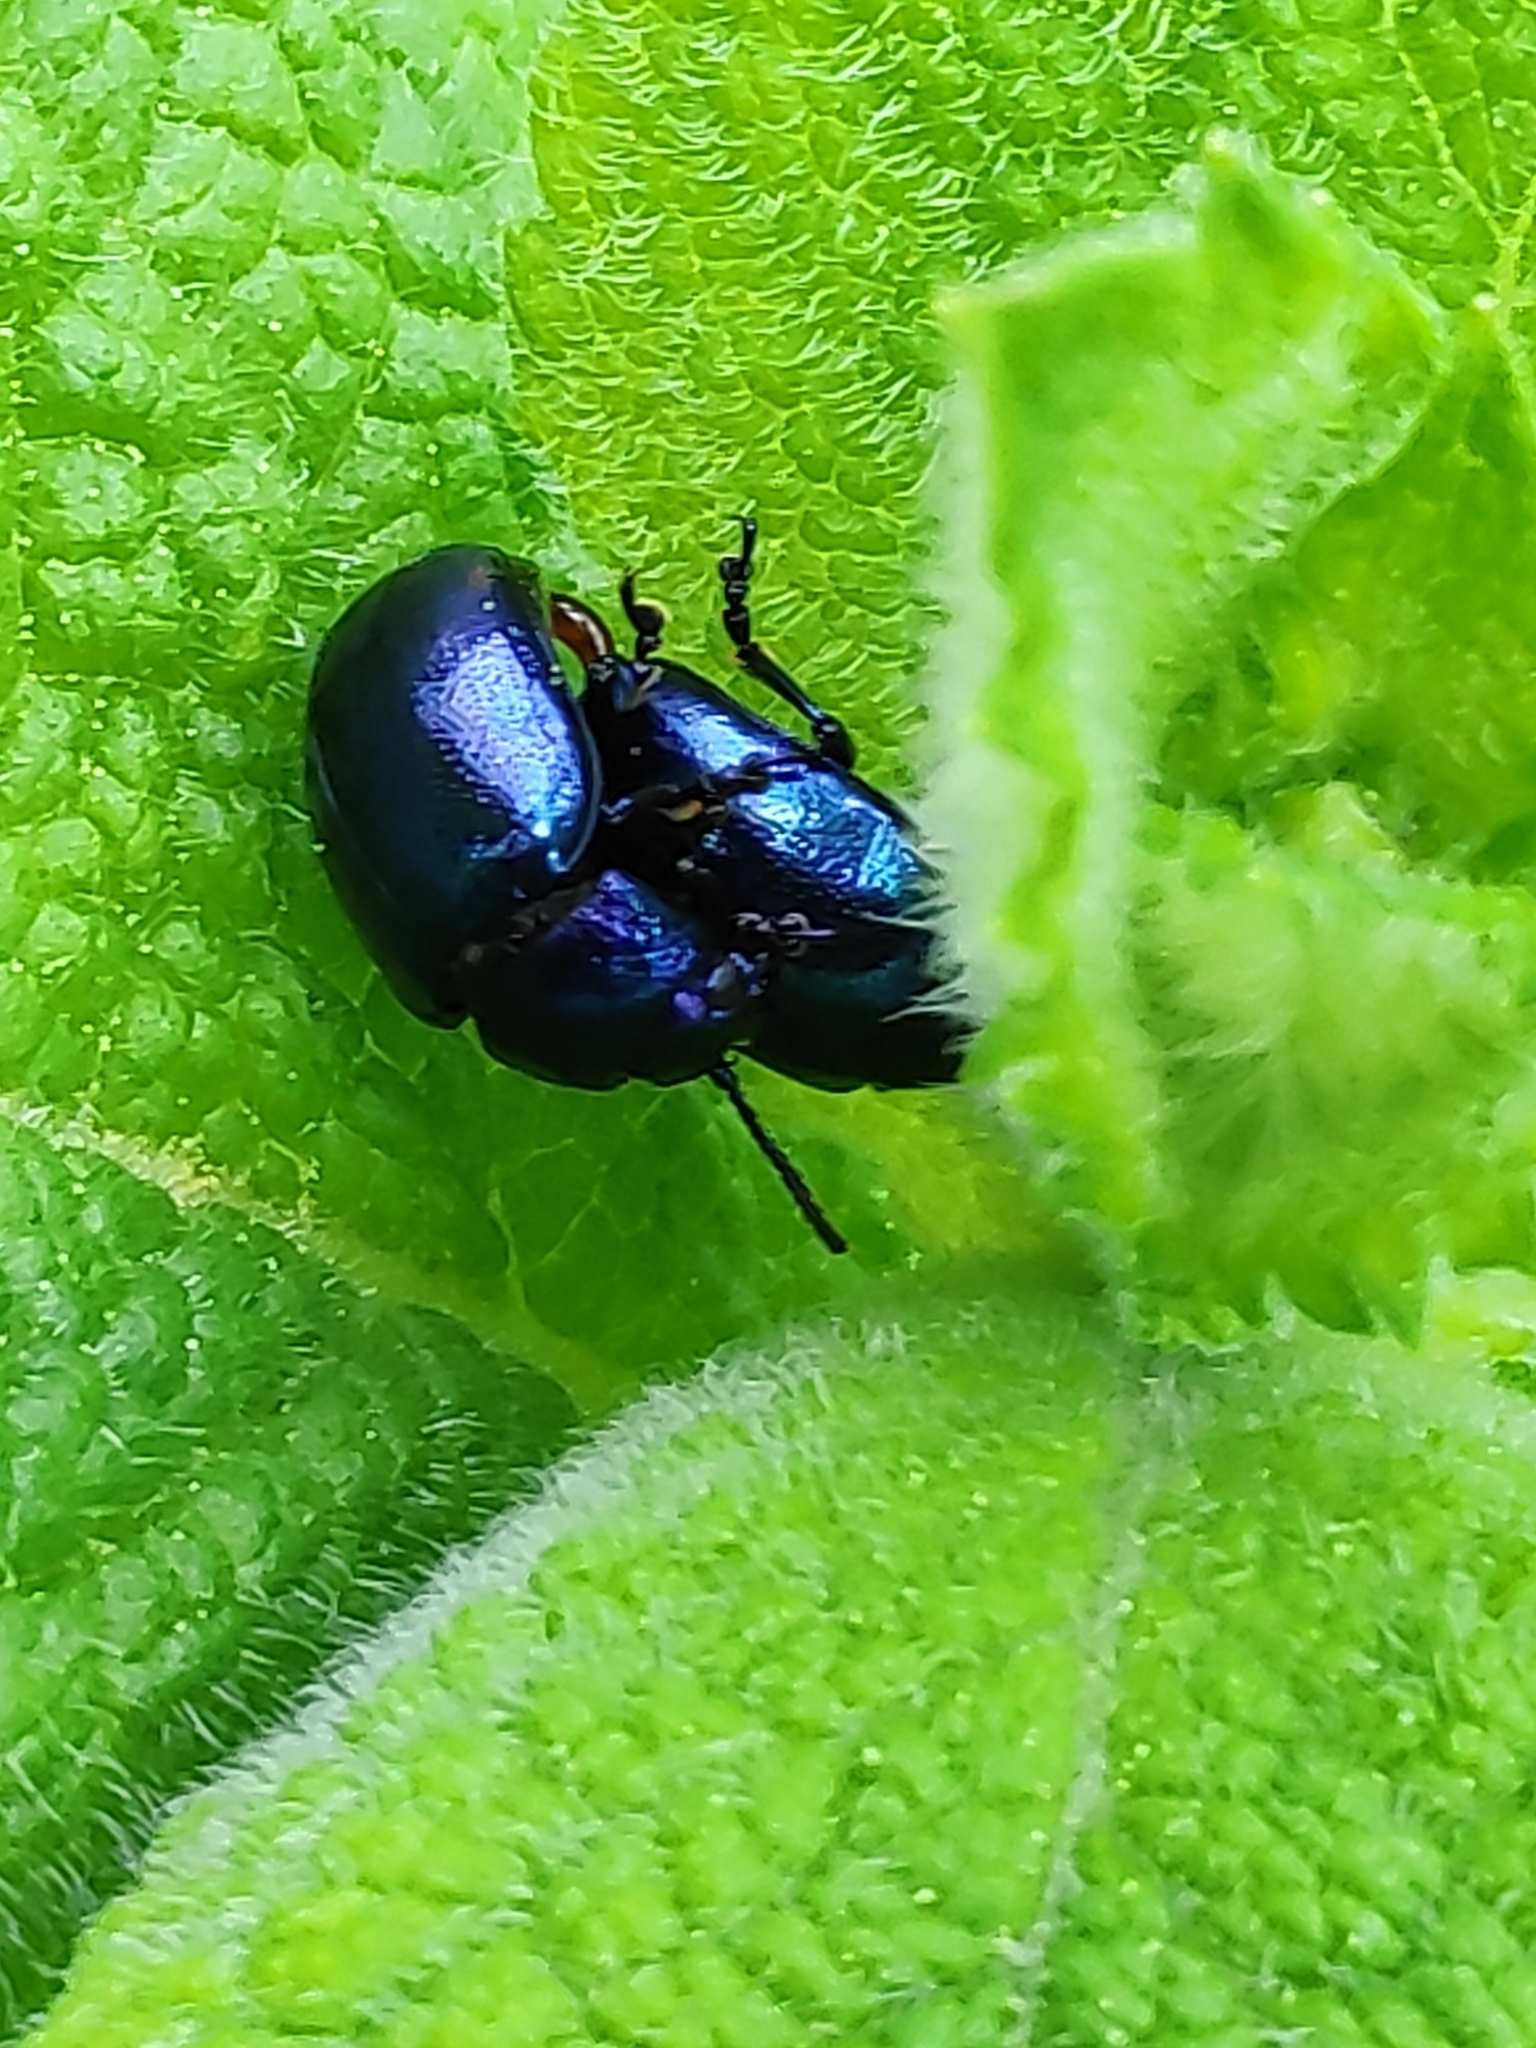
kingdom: Animalia
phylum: Arthropoda
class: Insecta
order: Coleoptera
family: Chrysomelidae
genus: Chrysolina
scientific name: Chrysolina coerulans
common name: Blue mint beetle
